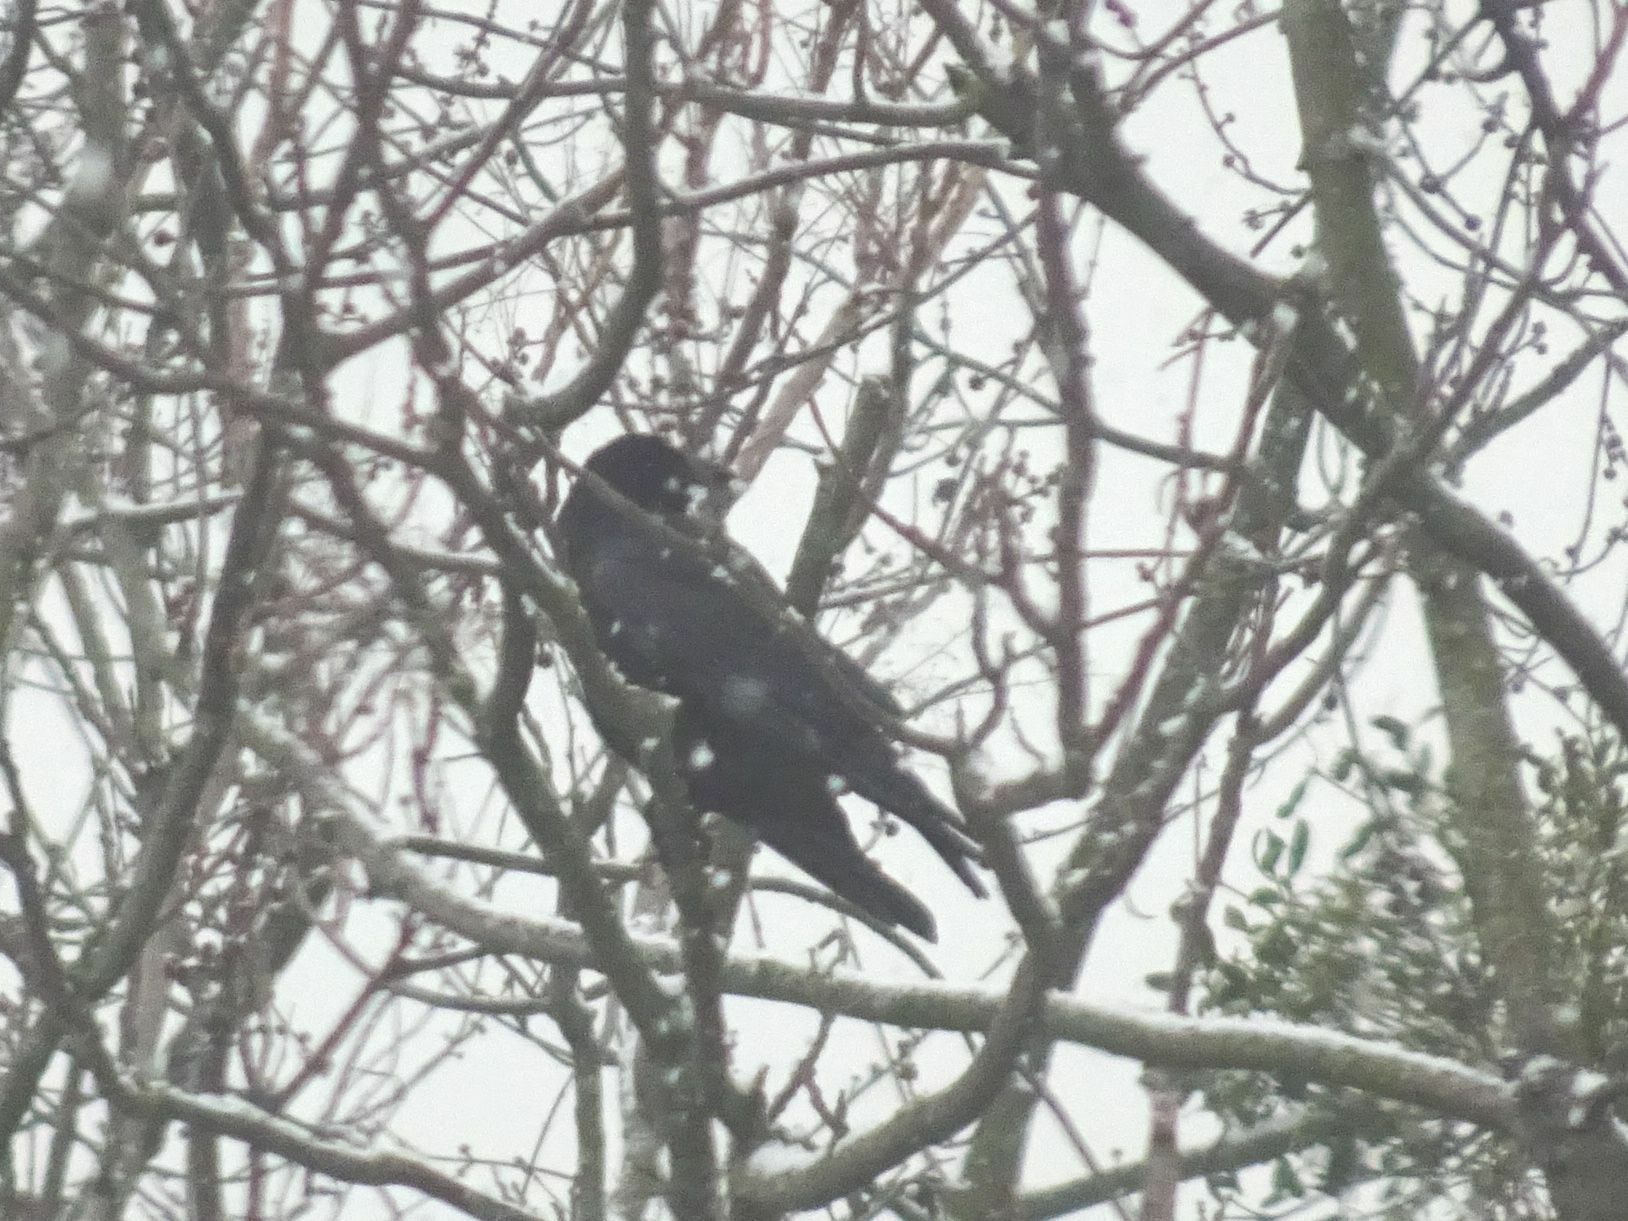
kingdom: Animalia
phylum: Chordata
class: Aves
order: Passeriformes
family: Corvidae
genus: Corvus
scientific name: Corvus corone
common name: Carrion crow
